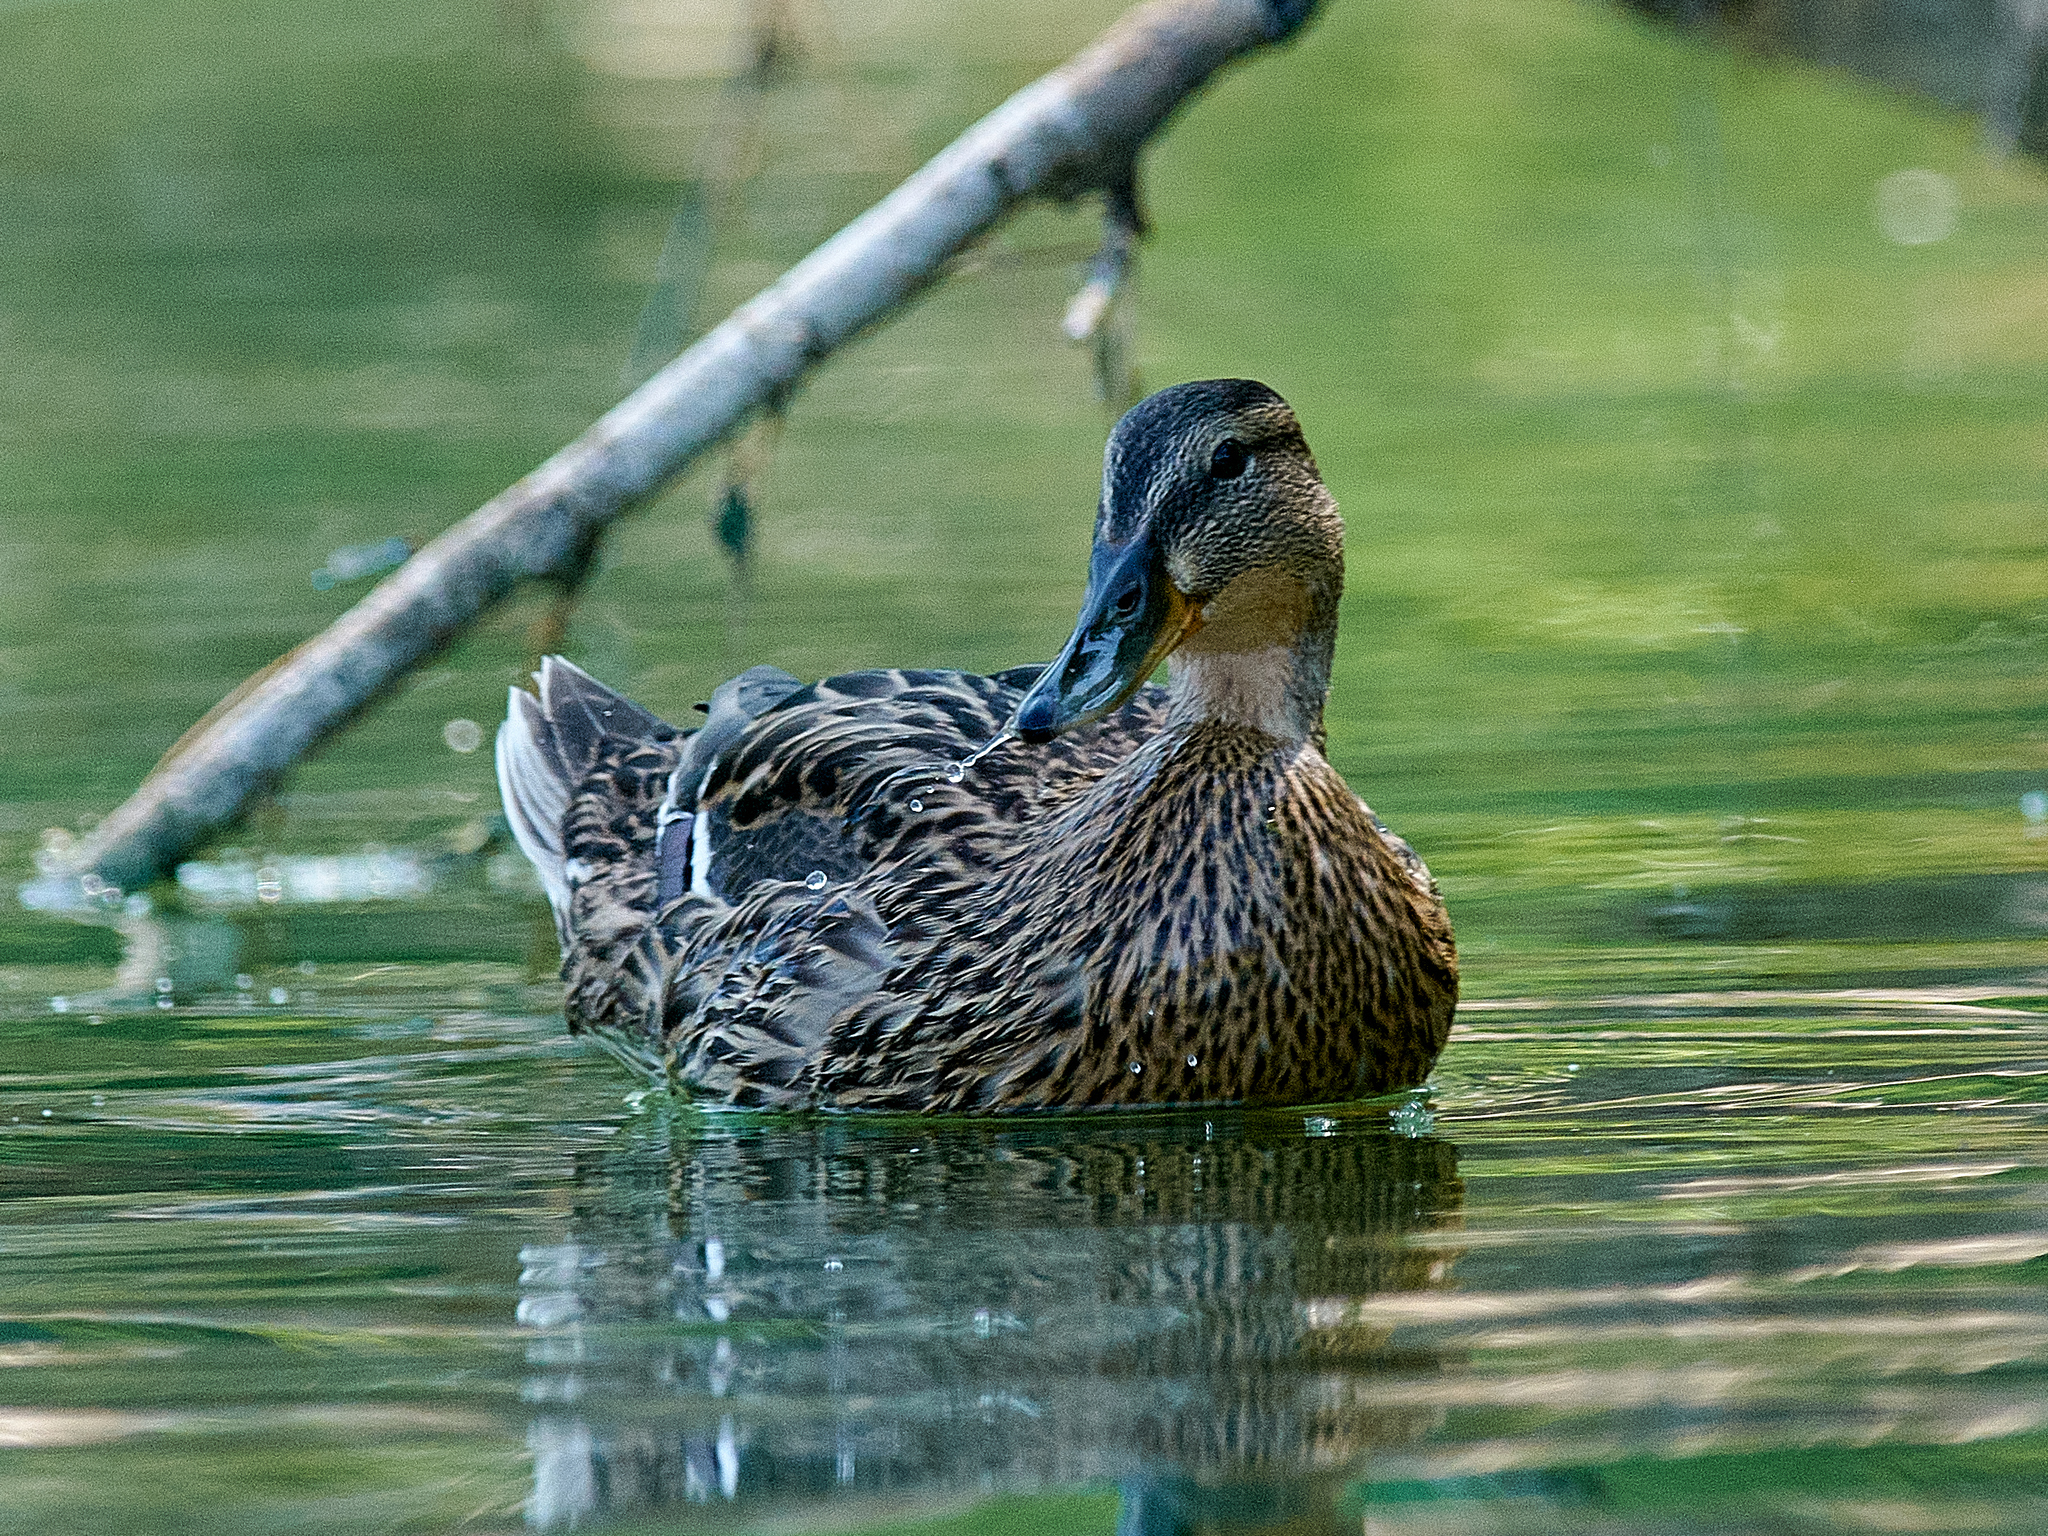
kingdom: Animalia
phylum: Chordata
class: Aves
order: Anseriformes
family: Anatidae
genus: Anas
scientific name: Anas platyrhynchos
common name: Mallard
